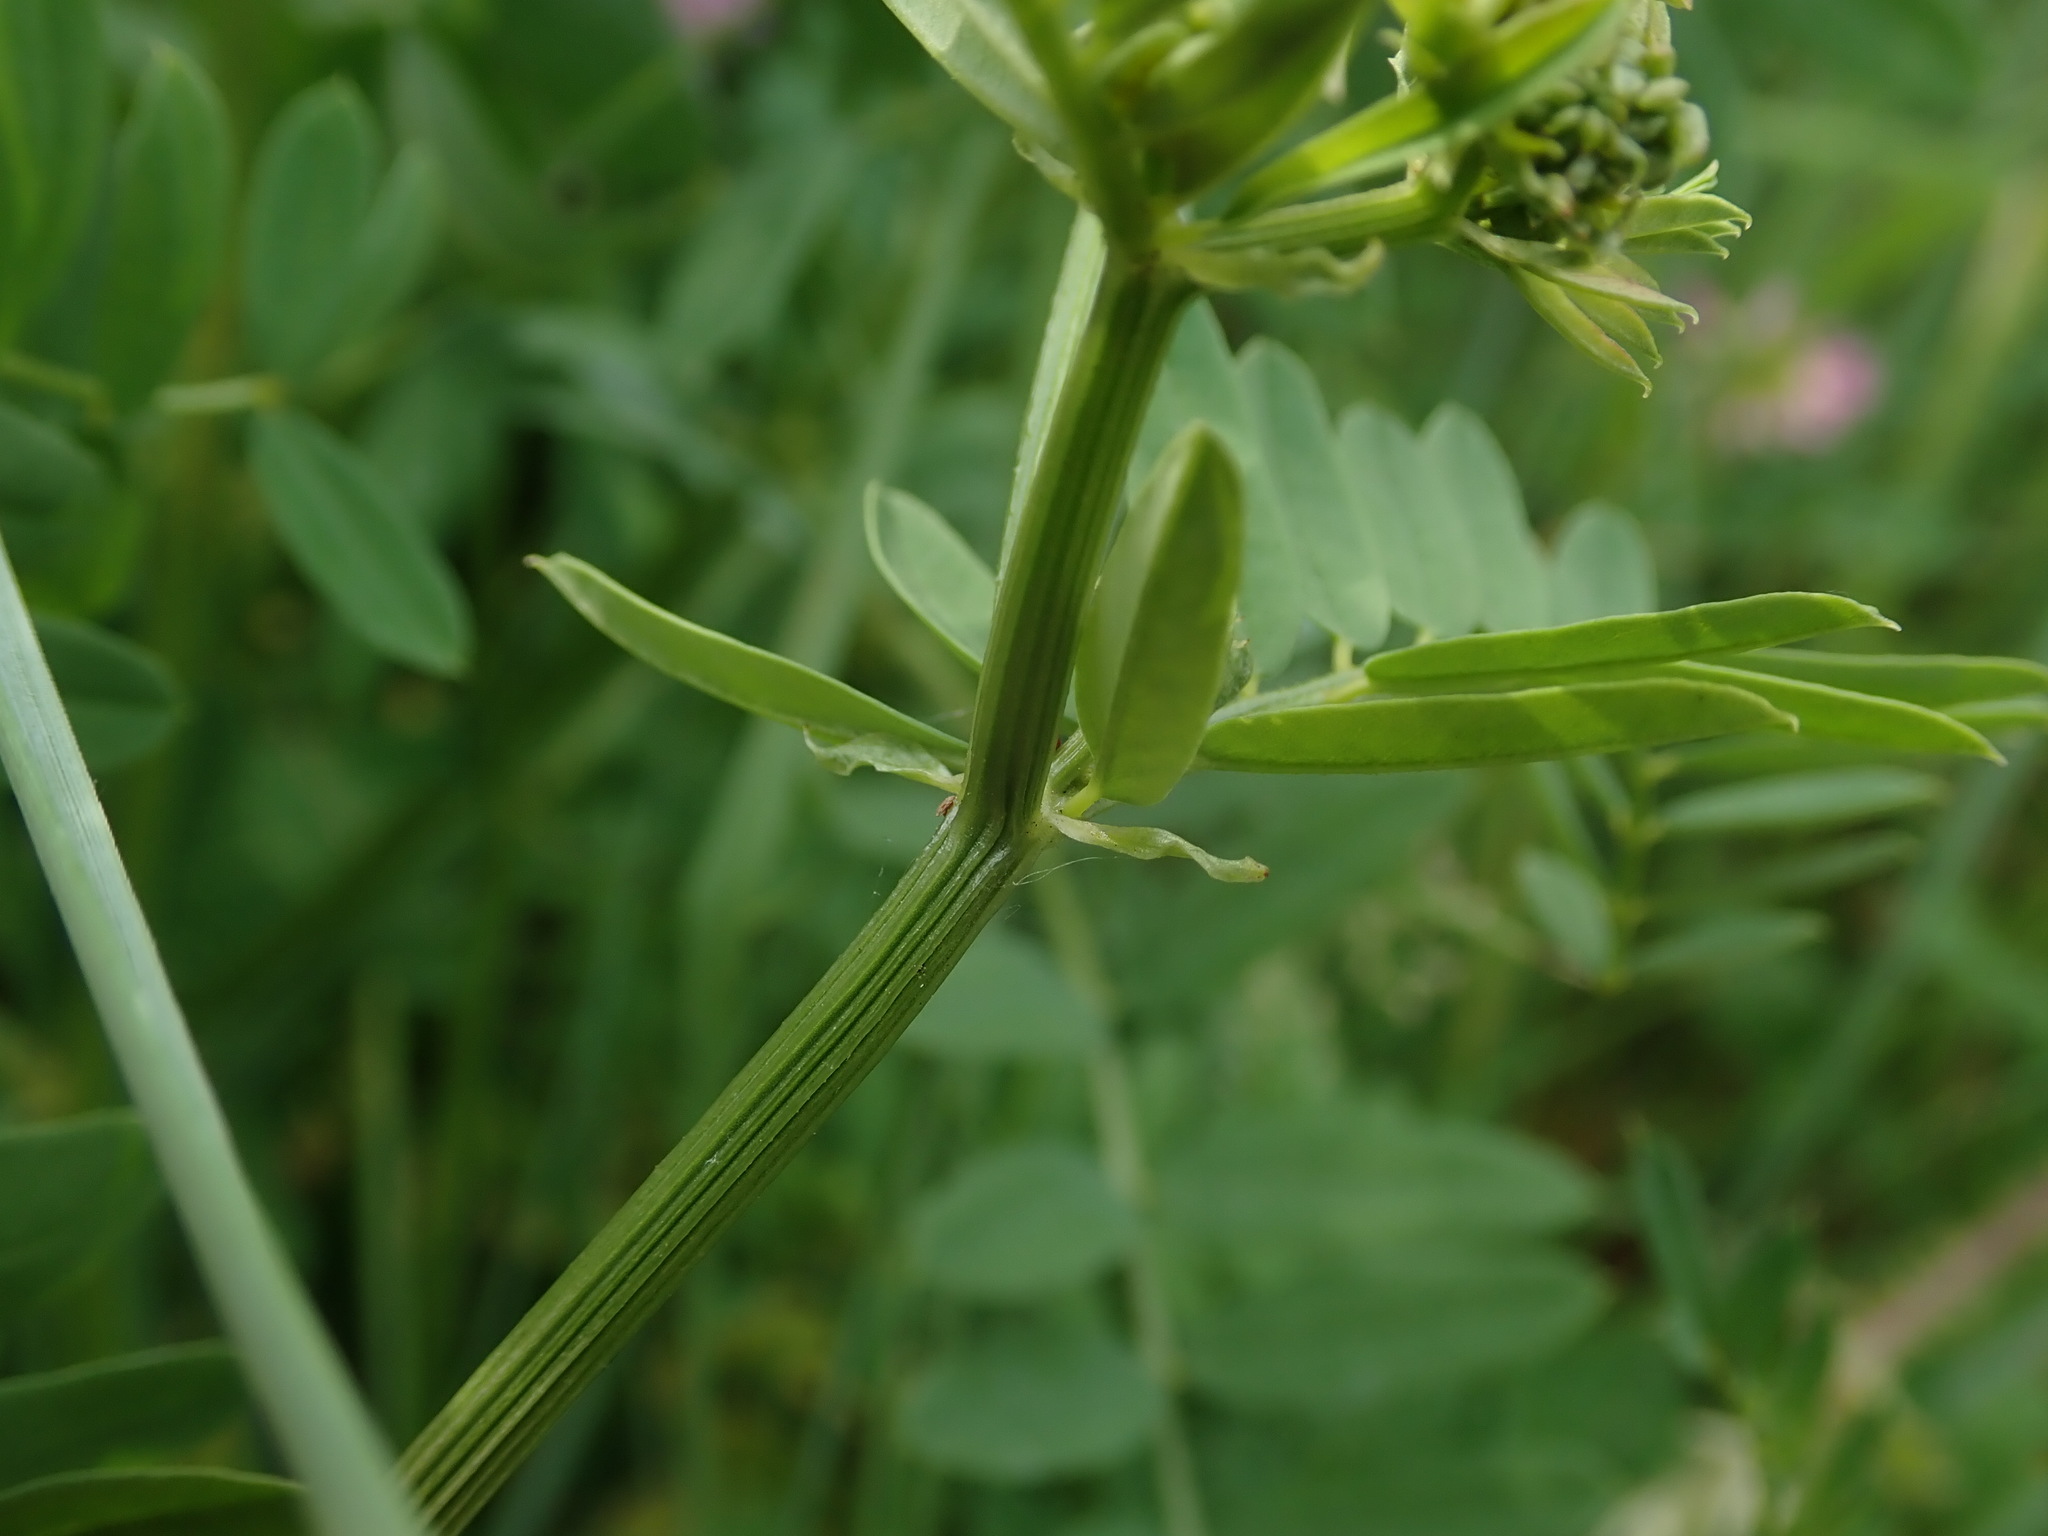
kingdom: Plantae
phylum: Tracheophyta
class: Magnoliopsida
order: Fabales
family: Fabaceae
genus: Coronilla
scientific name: Coronilla varia
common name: Crownvetch
